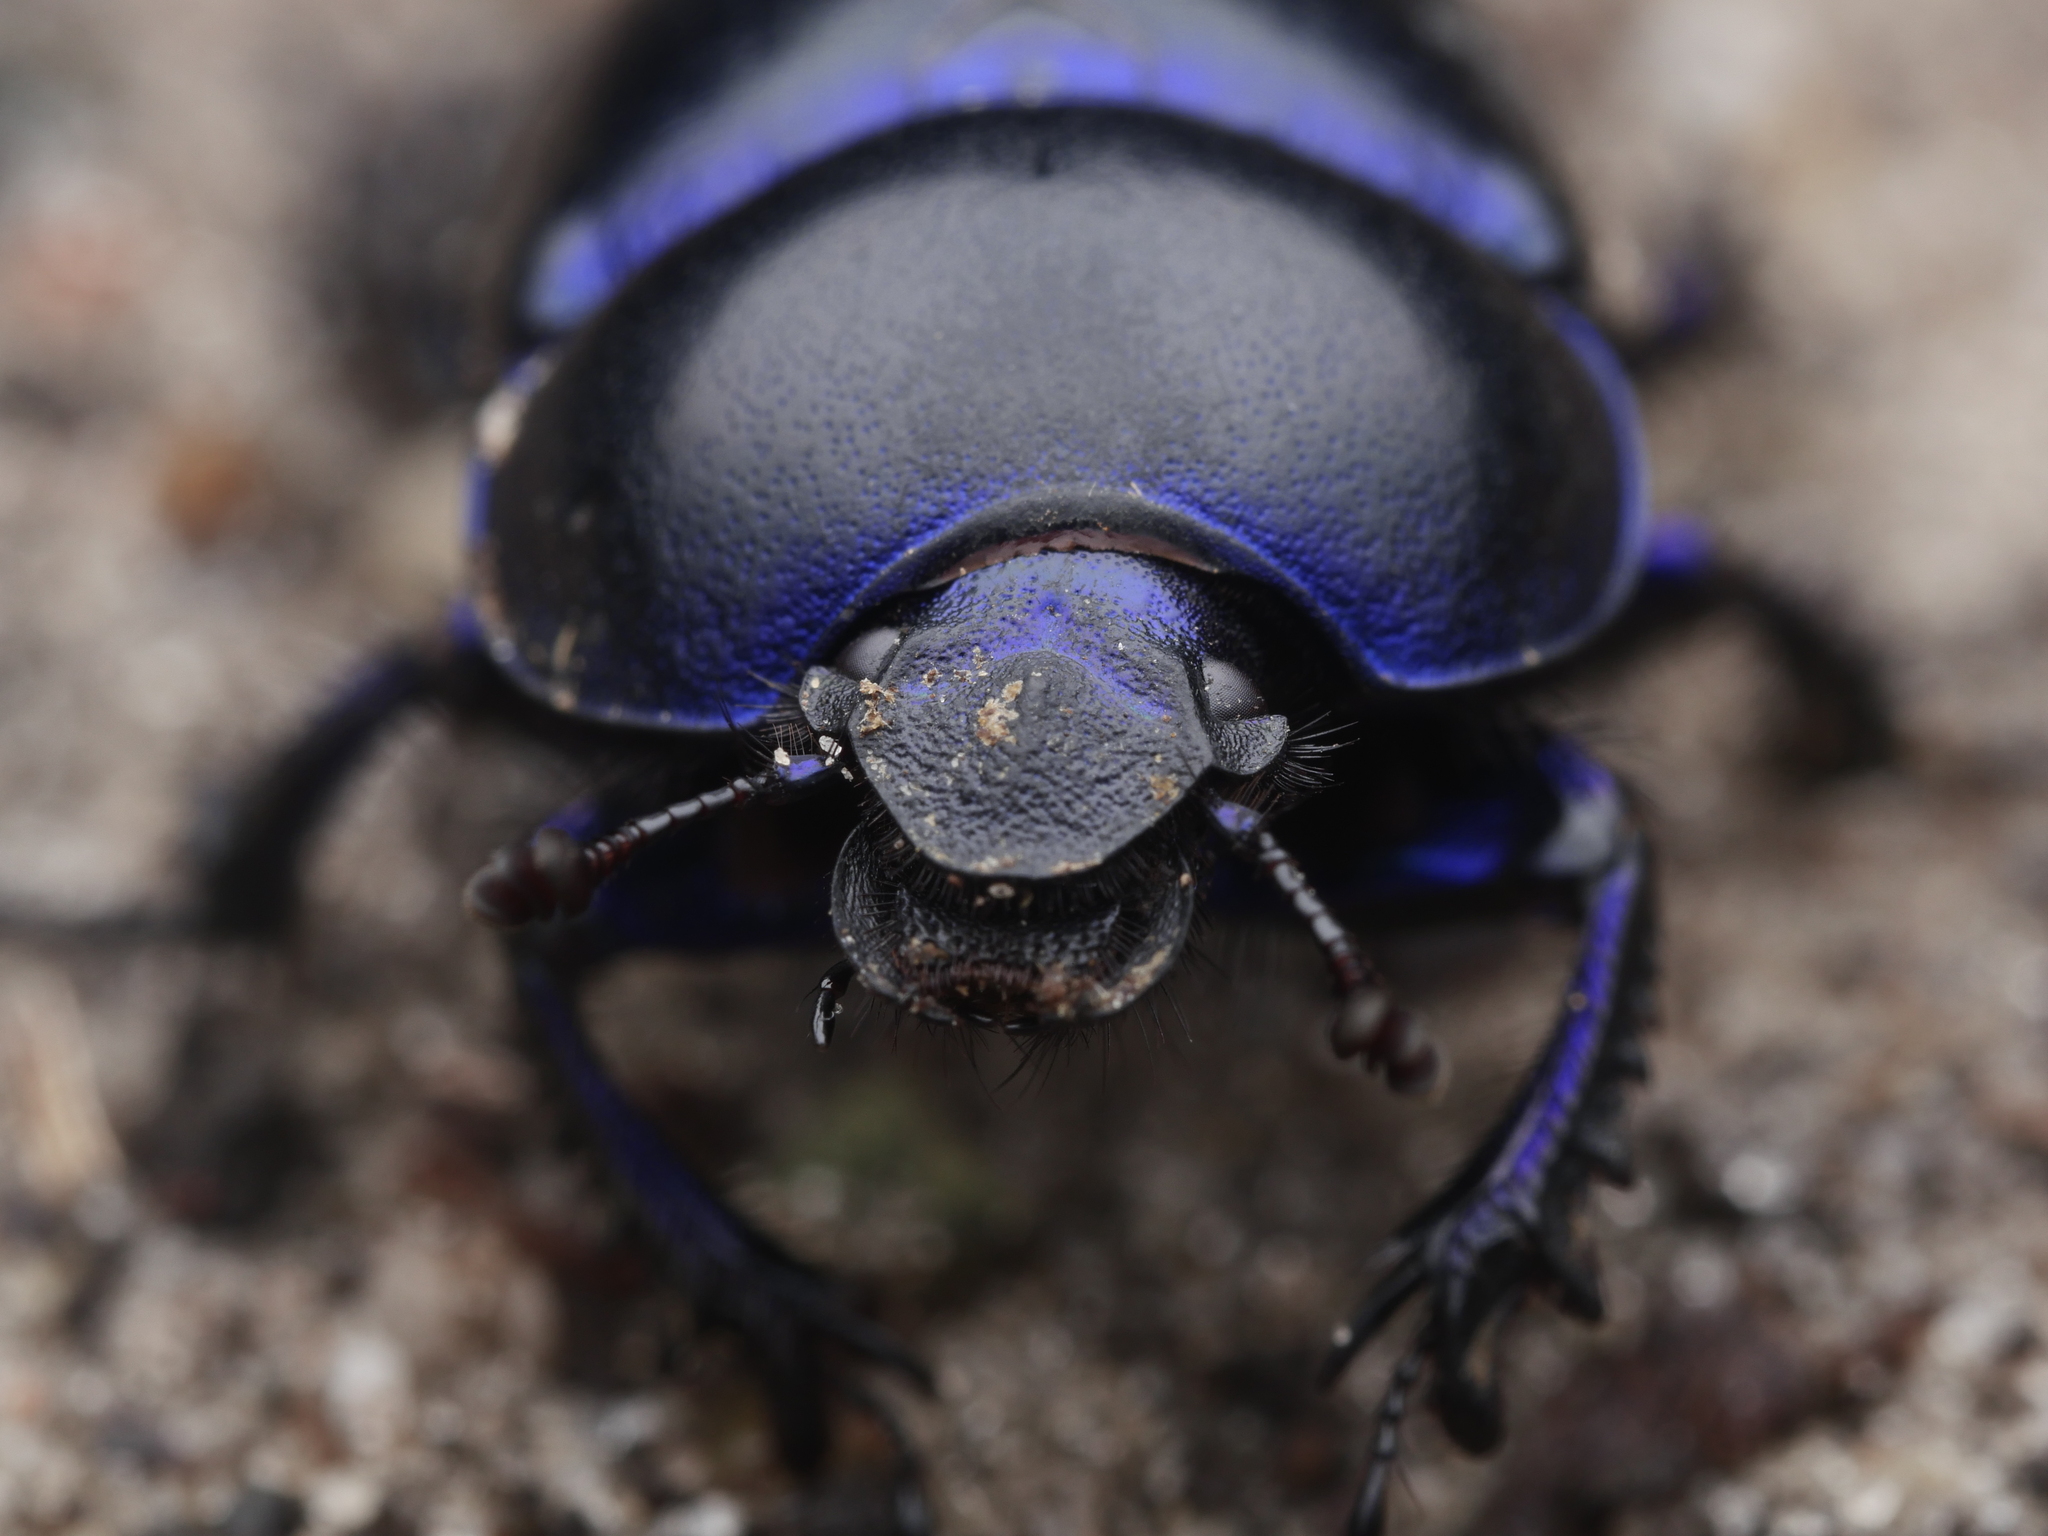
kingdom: Animalia
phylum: Arthropoda
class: Insecta
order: Coleoptera
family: Geotrupidae
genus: Trypocopris
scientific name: Trypocopris vernalis
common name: Spring dumbledor
